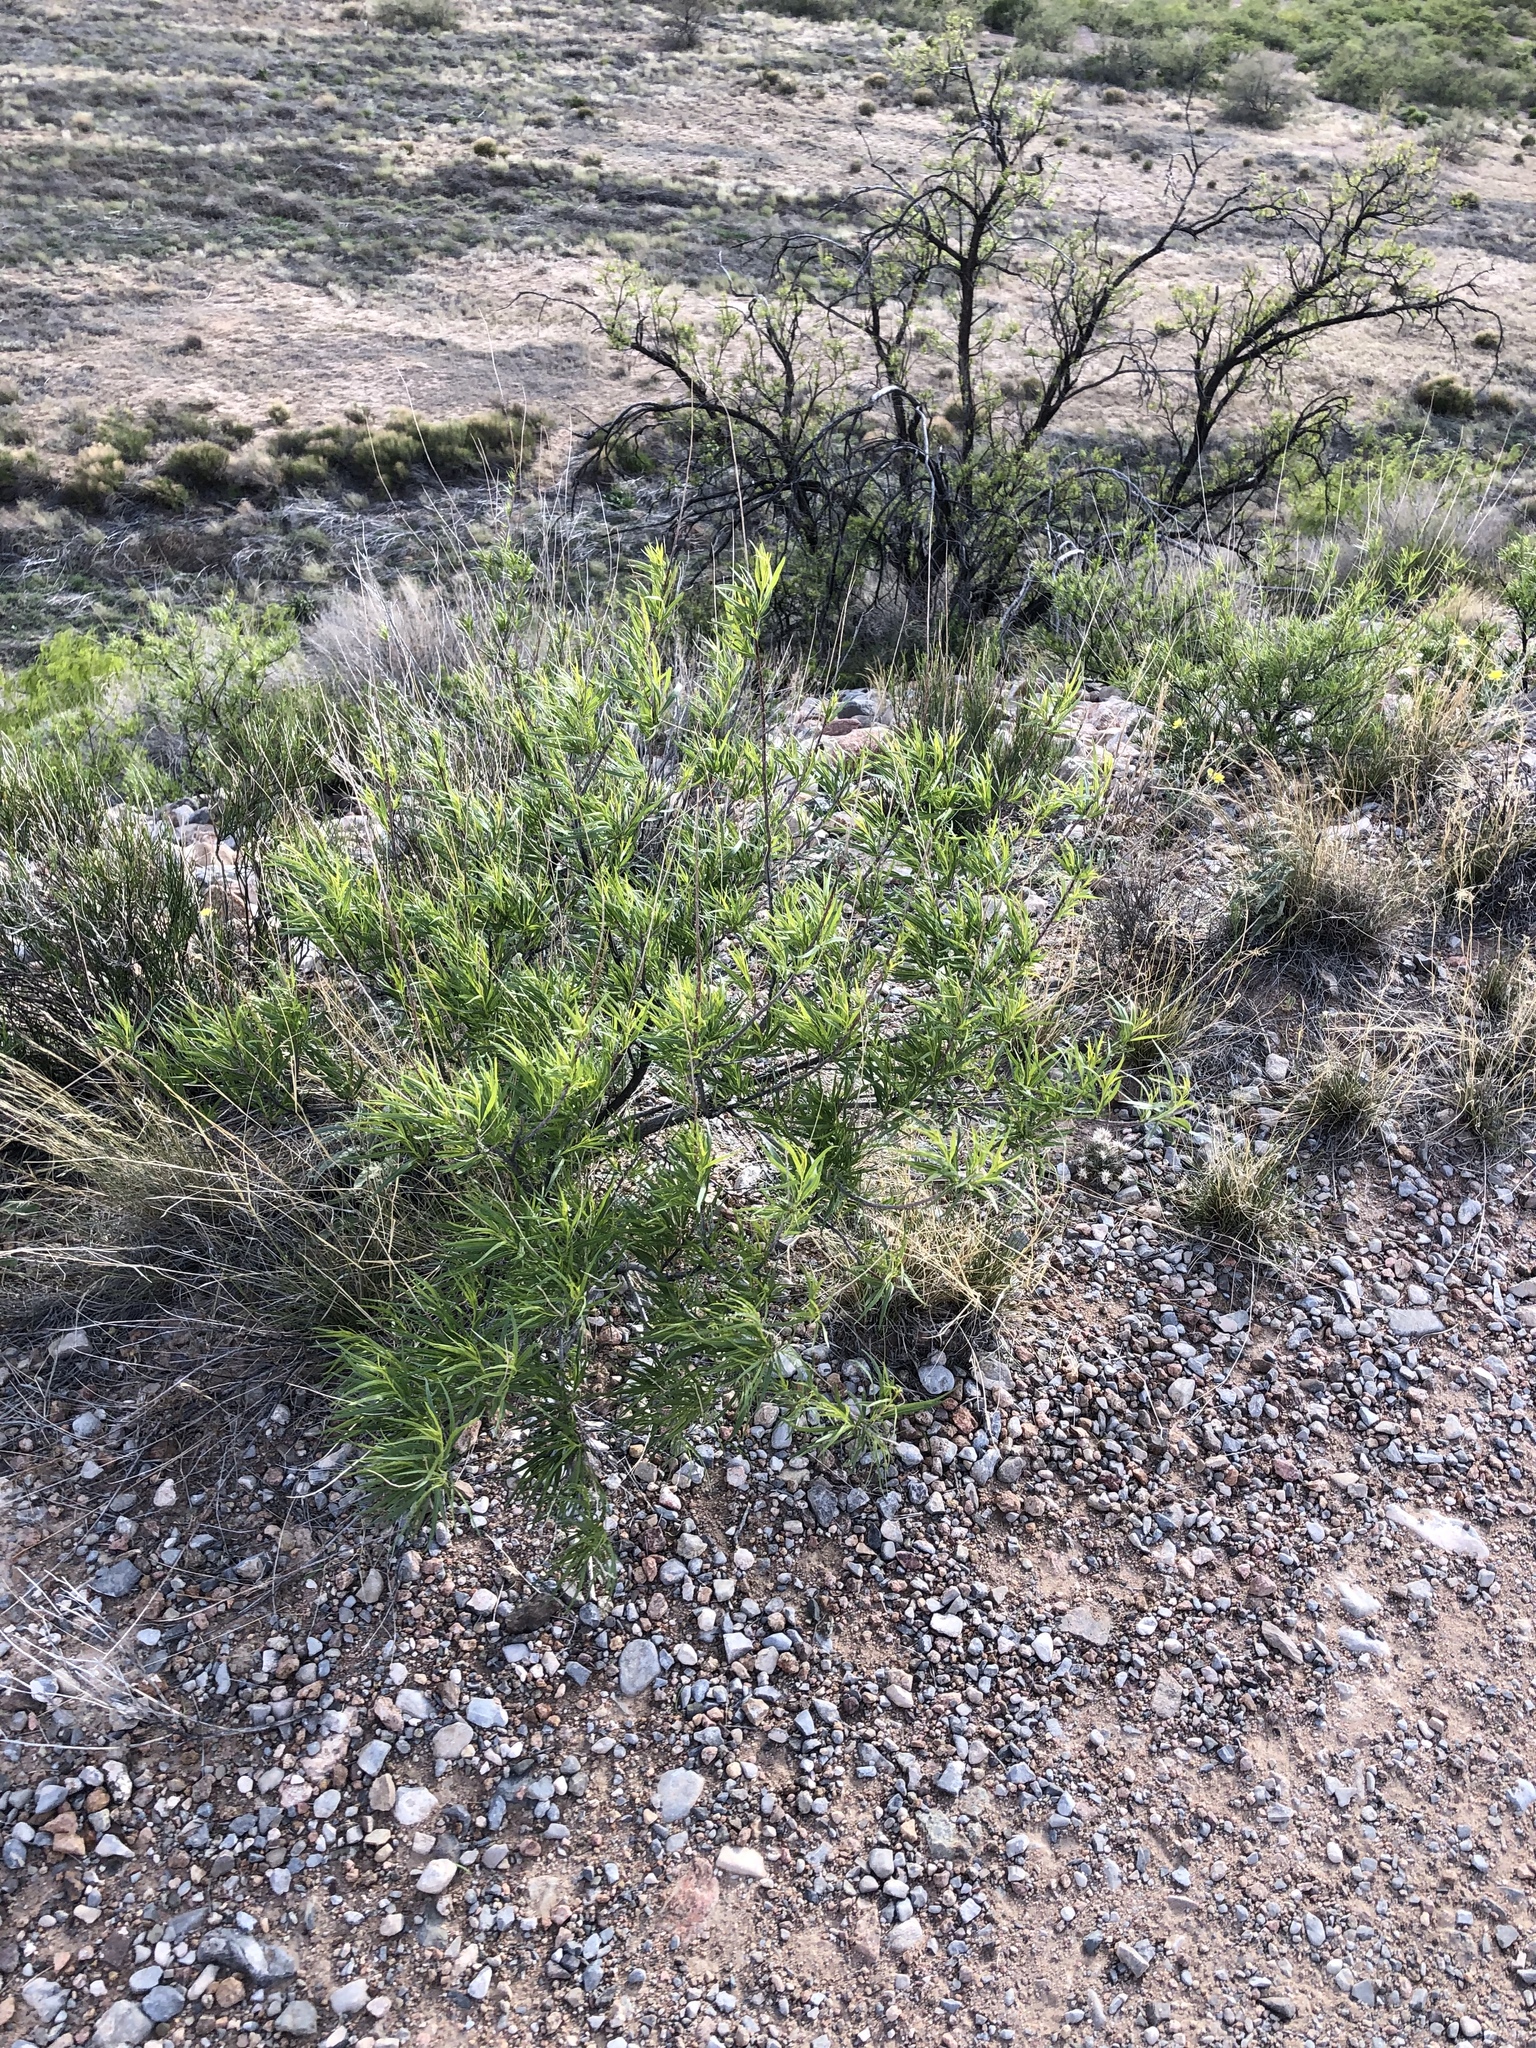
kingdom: Plantae
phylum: Tracheophyta
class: Magnoliopsida
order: Lamiales
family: Bignoniaceae
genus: Chilopsis
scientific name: Chilopsis linearis
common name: Desert-willow
